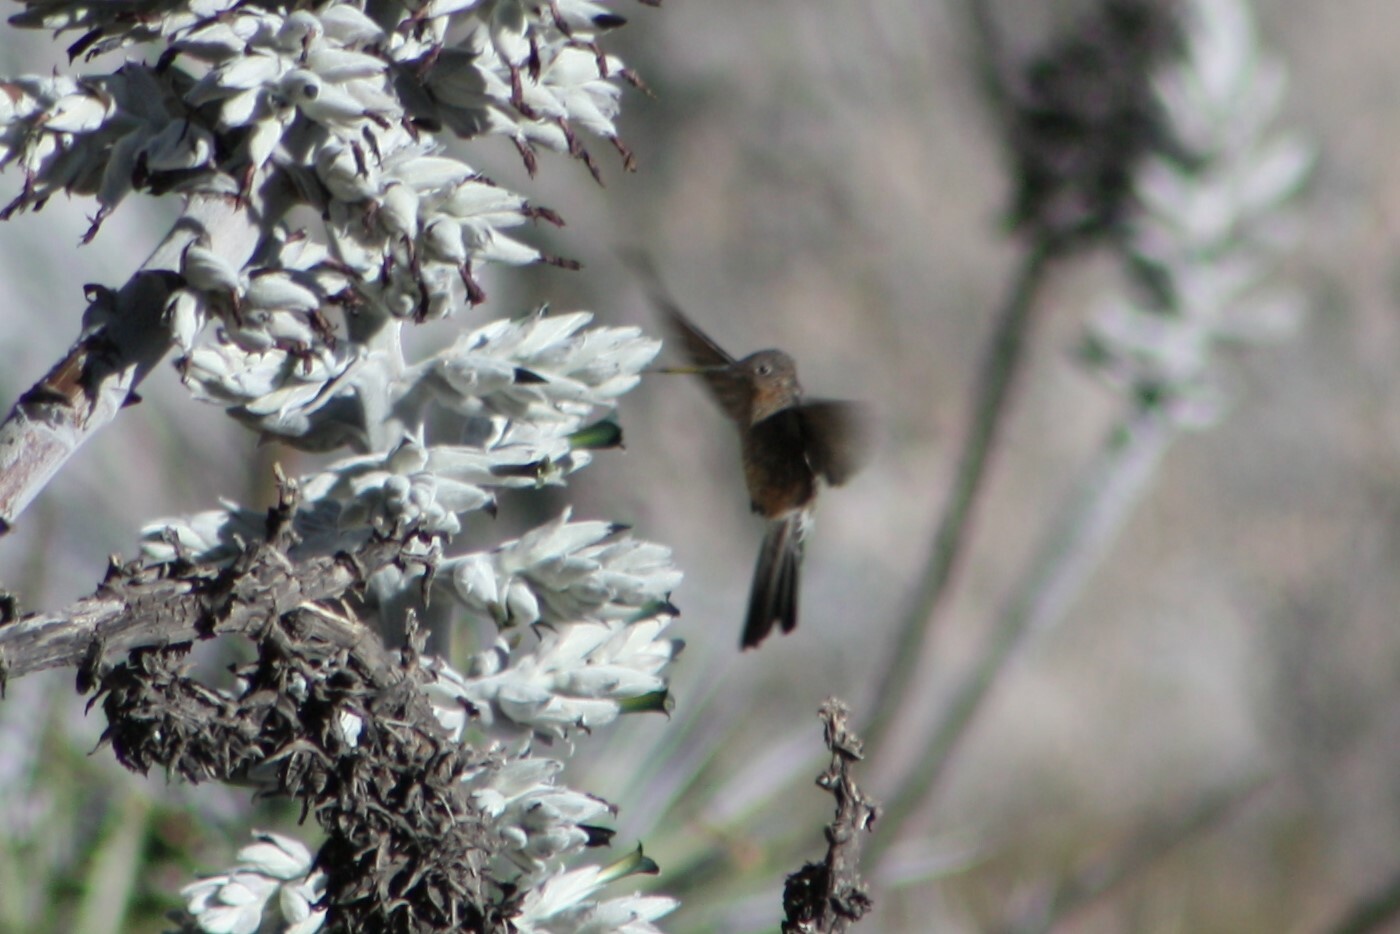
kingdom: Animalia
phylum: Chordata
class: Aves
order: Apodiformes
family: Trochilidae
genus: Patagona
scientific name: Patagona gigas
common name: Giant hummingbird
